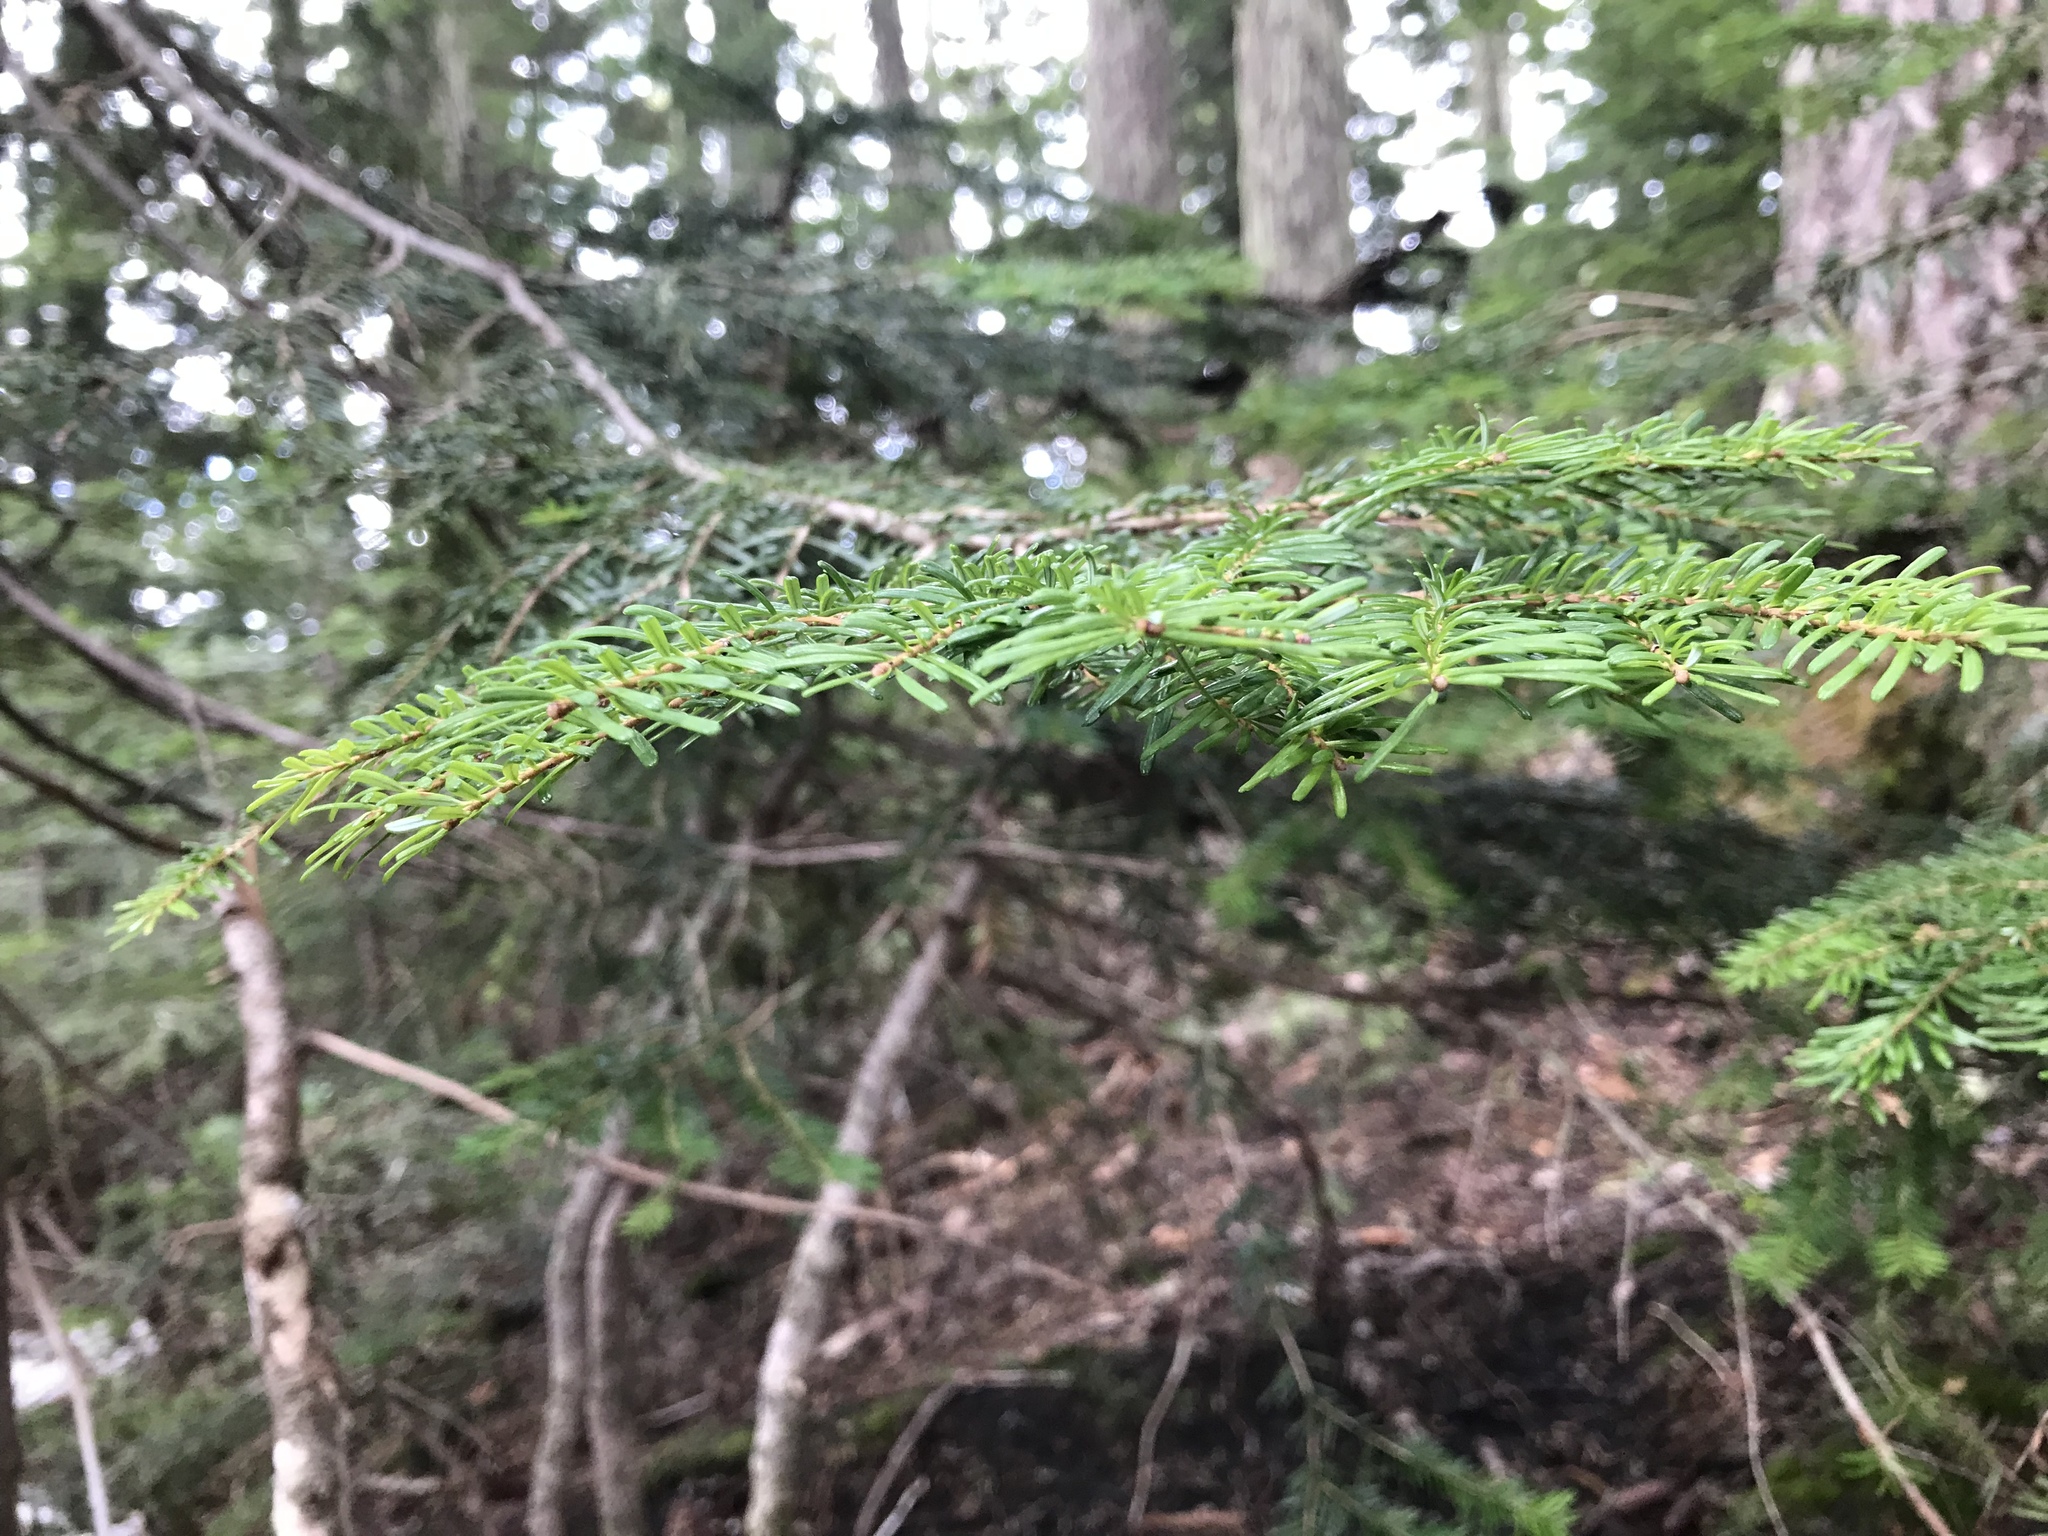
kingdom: Plantae
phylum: Tracheophyta
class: Pinopsida
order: Pinales
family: Pinaceae
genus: Abies
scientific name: Abies amabilis
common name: Pacific silver fir
